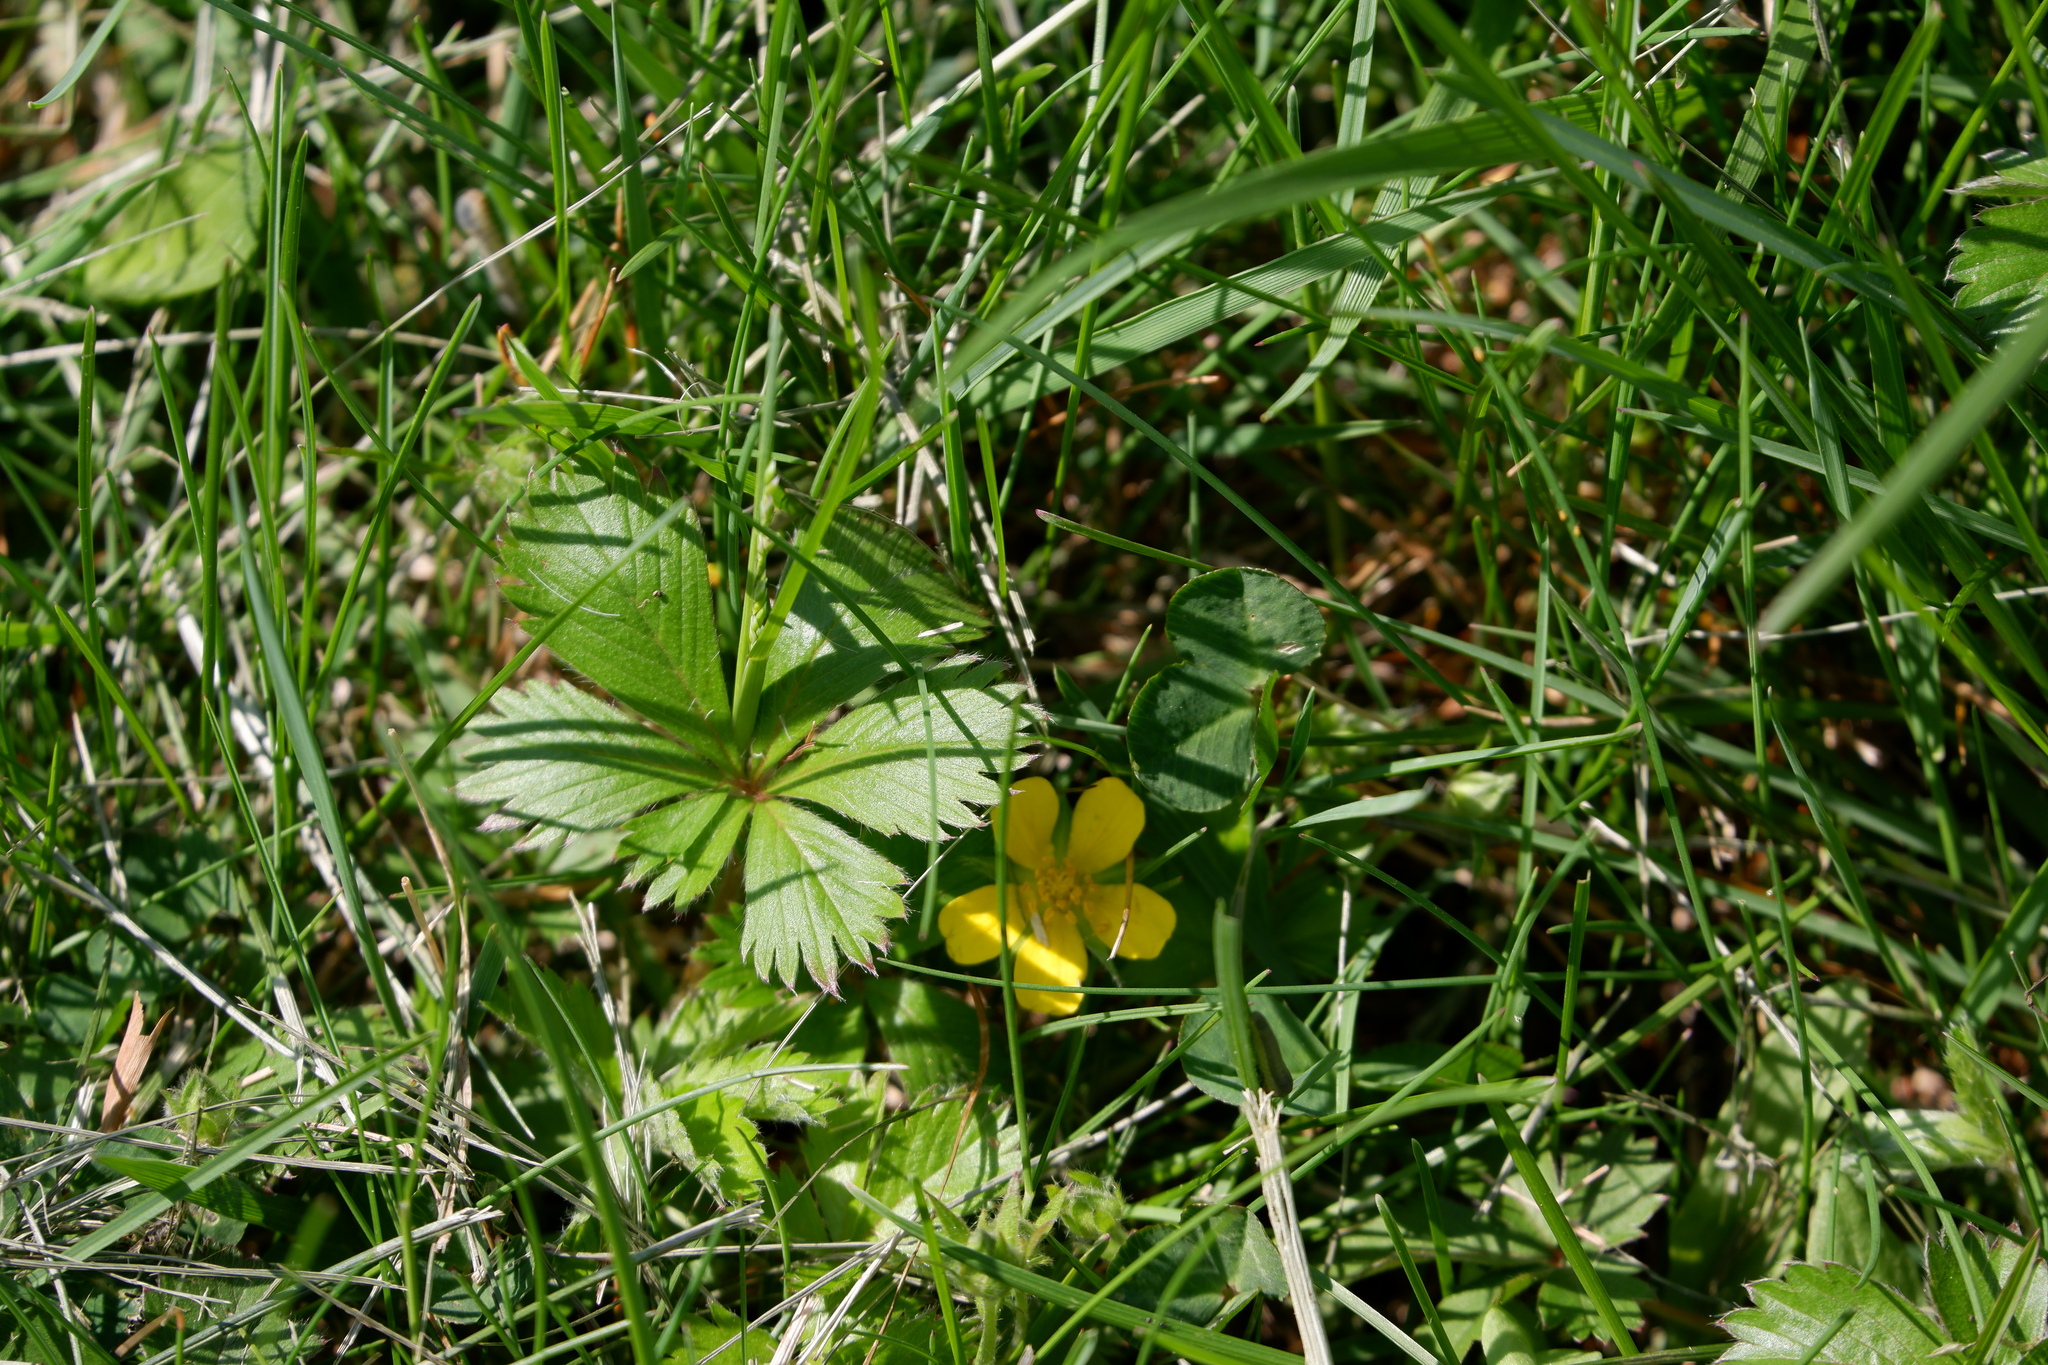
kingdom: Plantae
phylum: Tracheophyta
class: Magnoliopsida
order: Rosales
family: Rosaceae
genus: Potentilla
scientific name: Potentilla canadensis
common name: Canada cinquefoil
